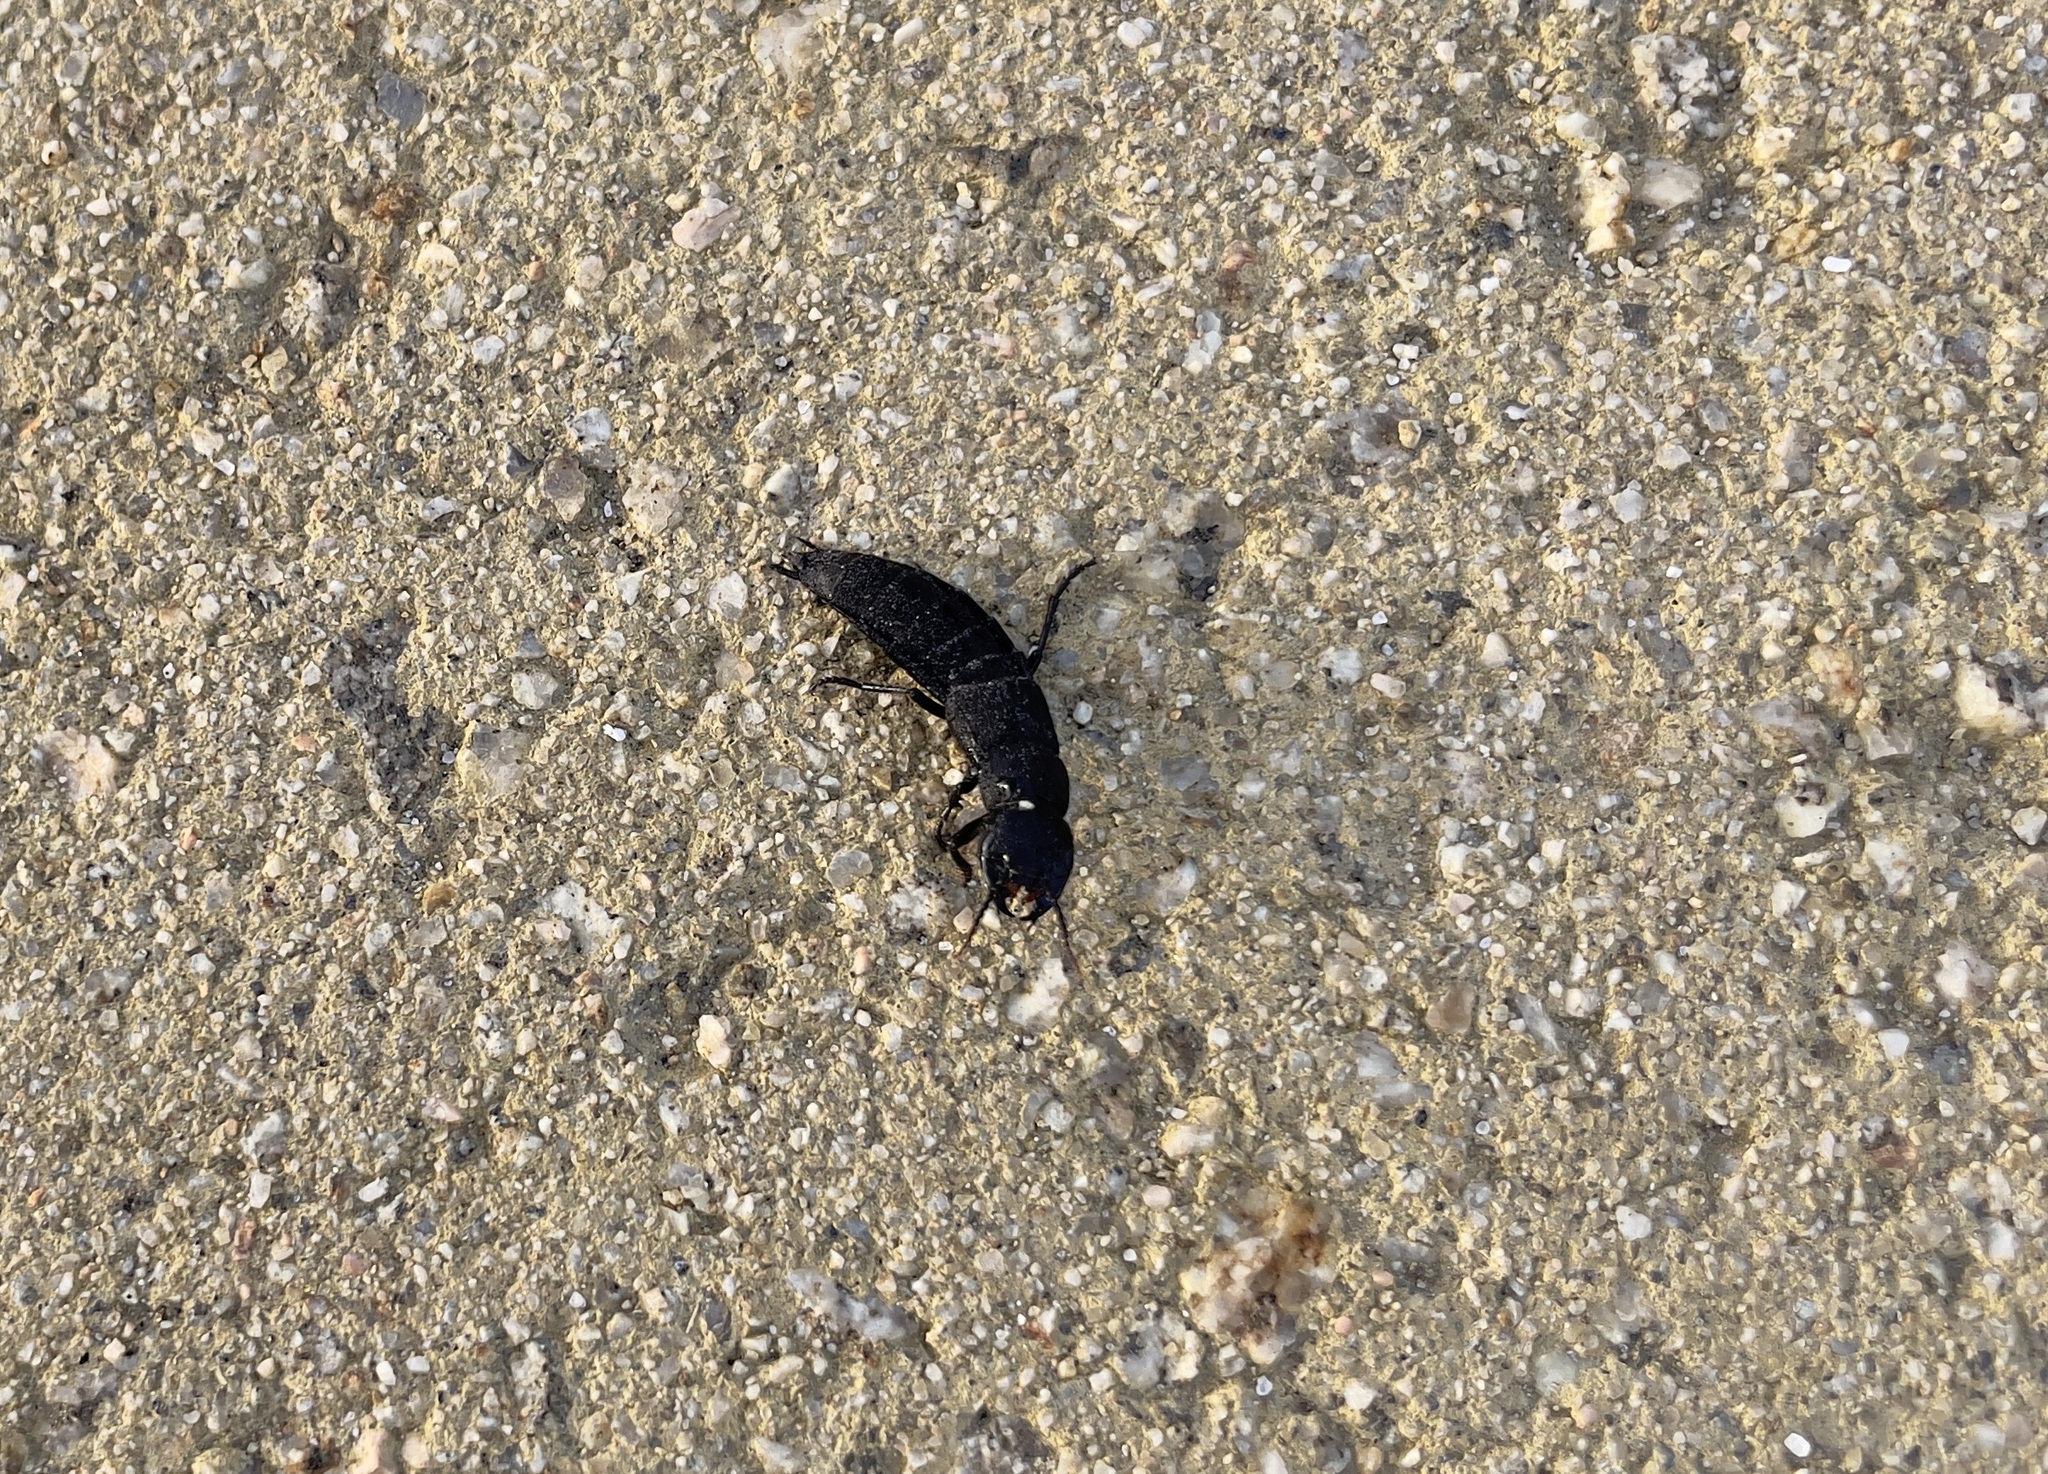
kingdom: Animalia
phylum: Arthropoda
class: Insecta
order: Coleoptera
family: Staphylinidae
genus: Ocypus
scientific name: Ocypus olens
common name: Devil's coach-horse
